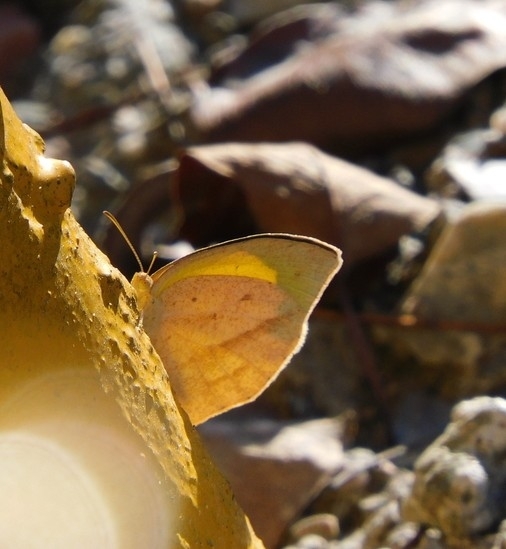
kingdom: Animalia
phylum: Arthropoda
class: Insecta
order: Lepidoptera
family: Pieridae
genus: Eurema
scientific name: Eurema laeta
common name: Spotless grass yellow
